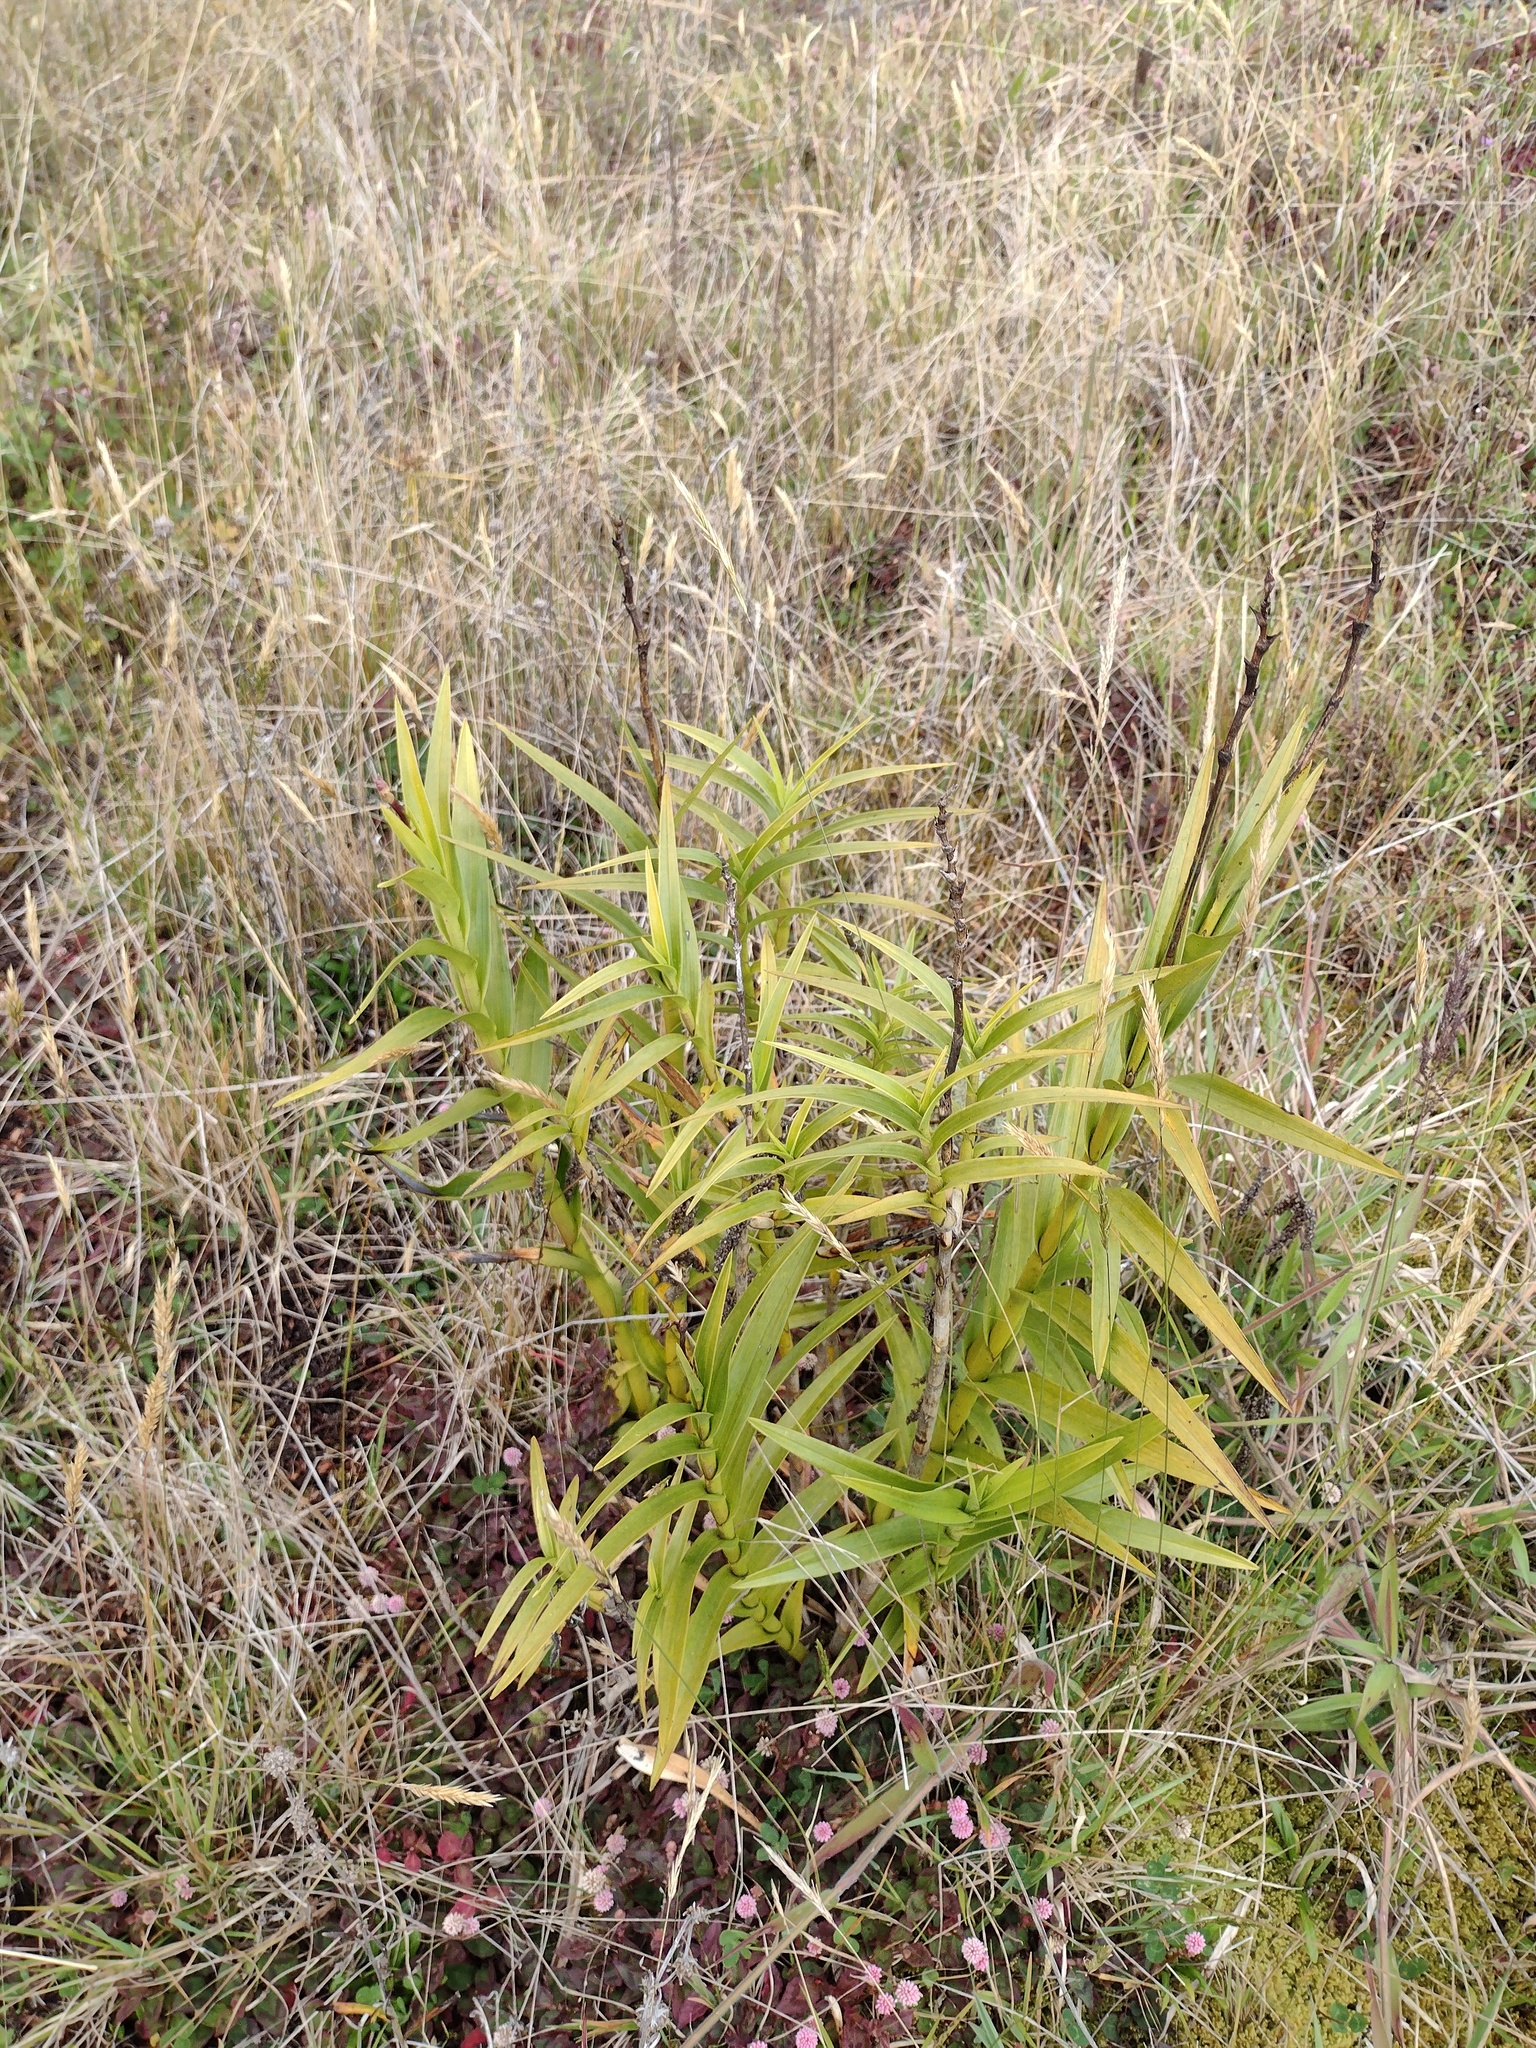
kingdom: Plantae
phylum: Tracheophyta
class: Liliopsida
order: Asparagales
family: Orchidaceae
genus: Arundina
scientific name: Arundina graminifolia
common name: Bamboo orchid
